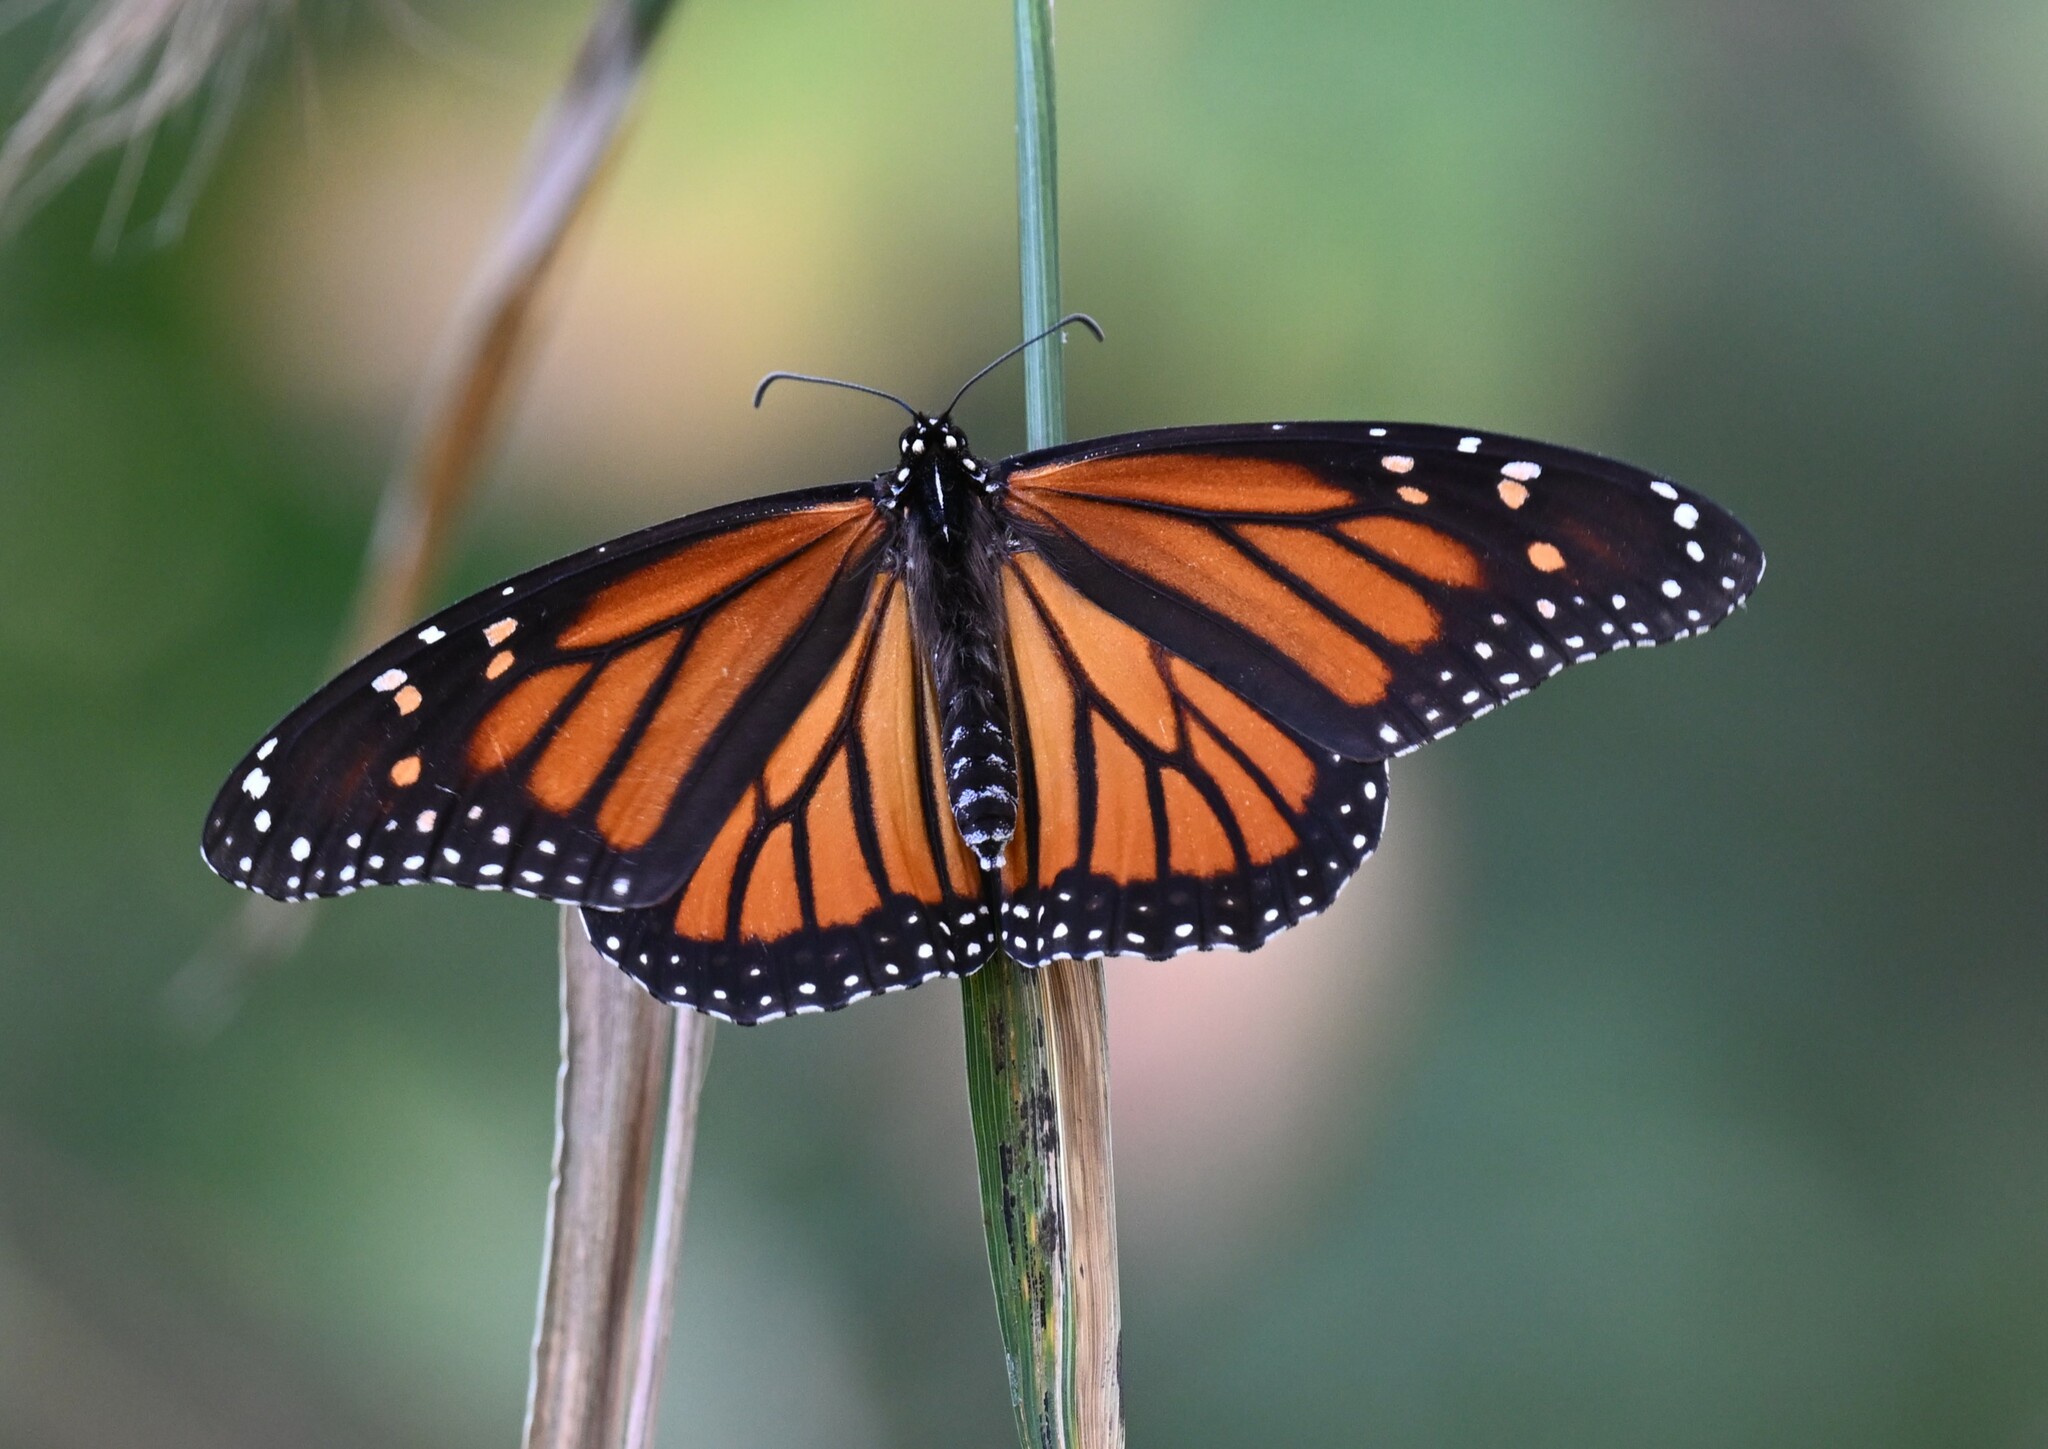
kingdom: Animalia
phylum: Arthropoda
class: Insecta
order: Lepidoptera
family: Nymphalidae
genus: Danaus
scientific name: Danaus plexippus
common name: Monarch
